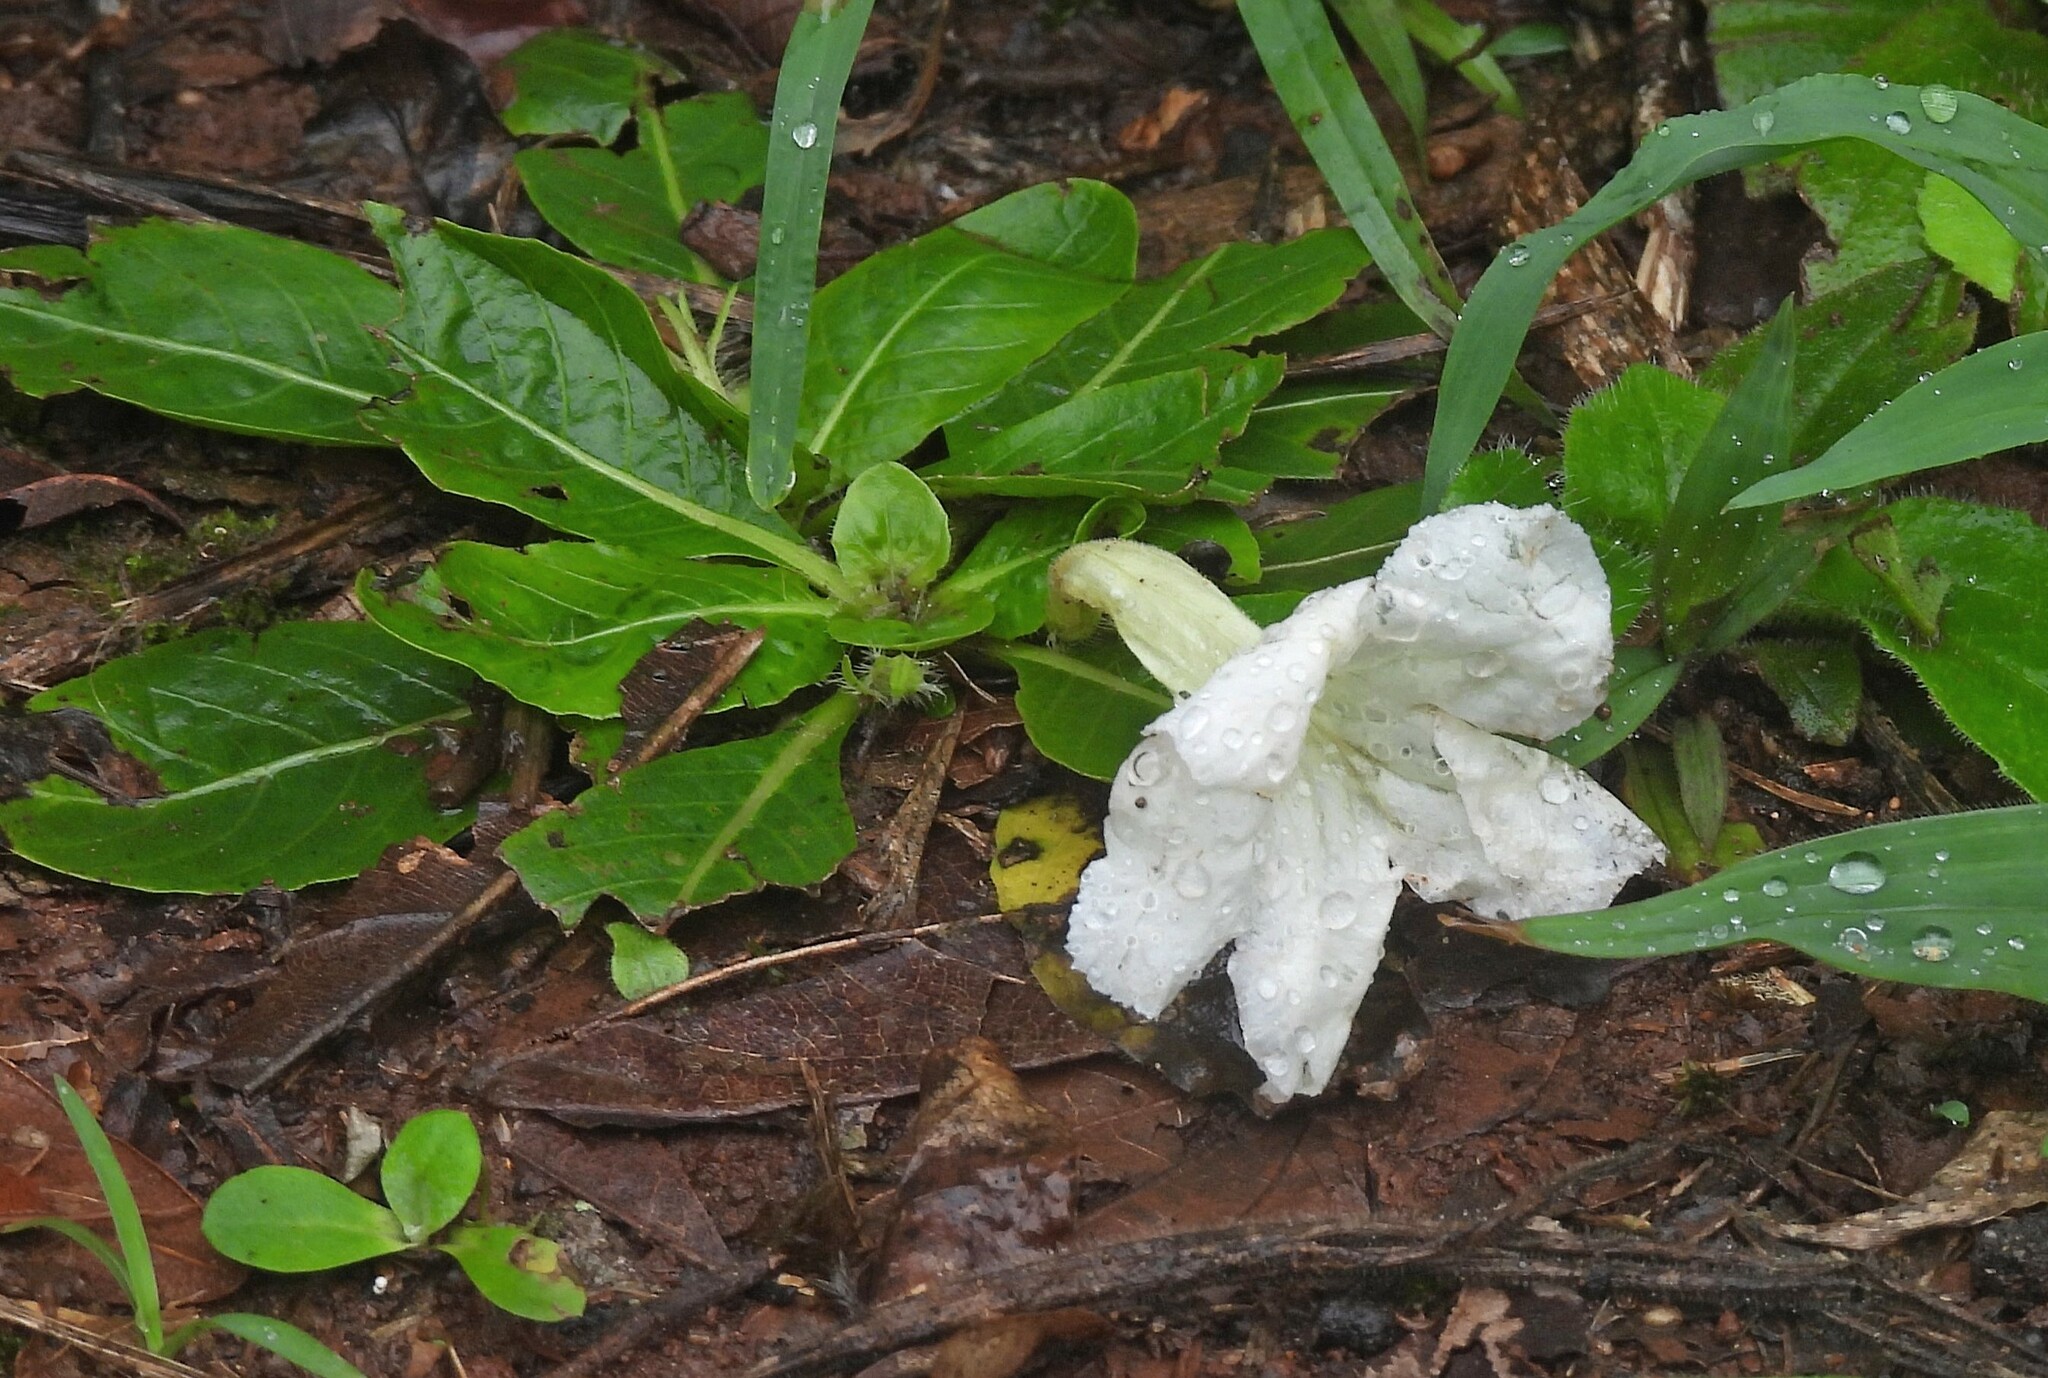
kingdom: Plantae
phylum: Tracheophyta
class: Magnoliopsida
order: Lamiales
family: Acanthaceae
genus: Ruellia
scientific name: Ruellia morongii
